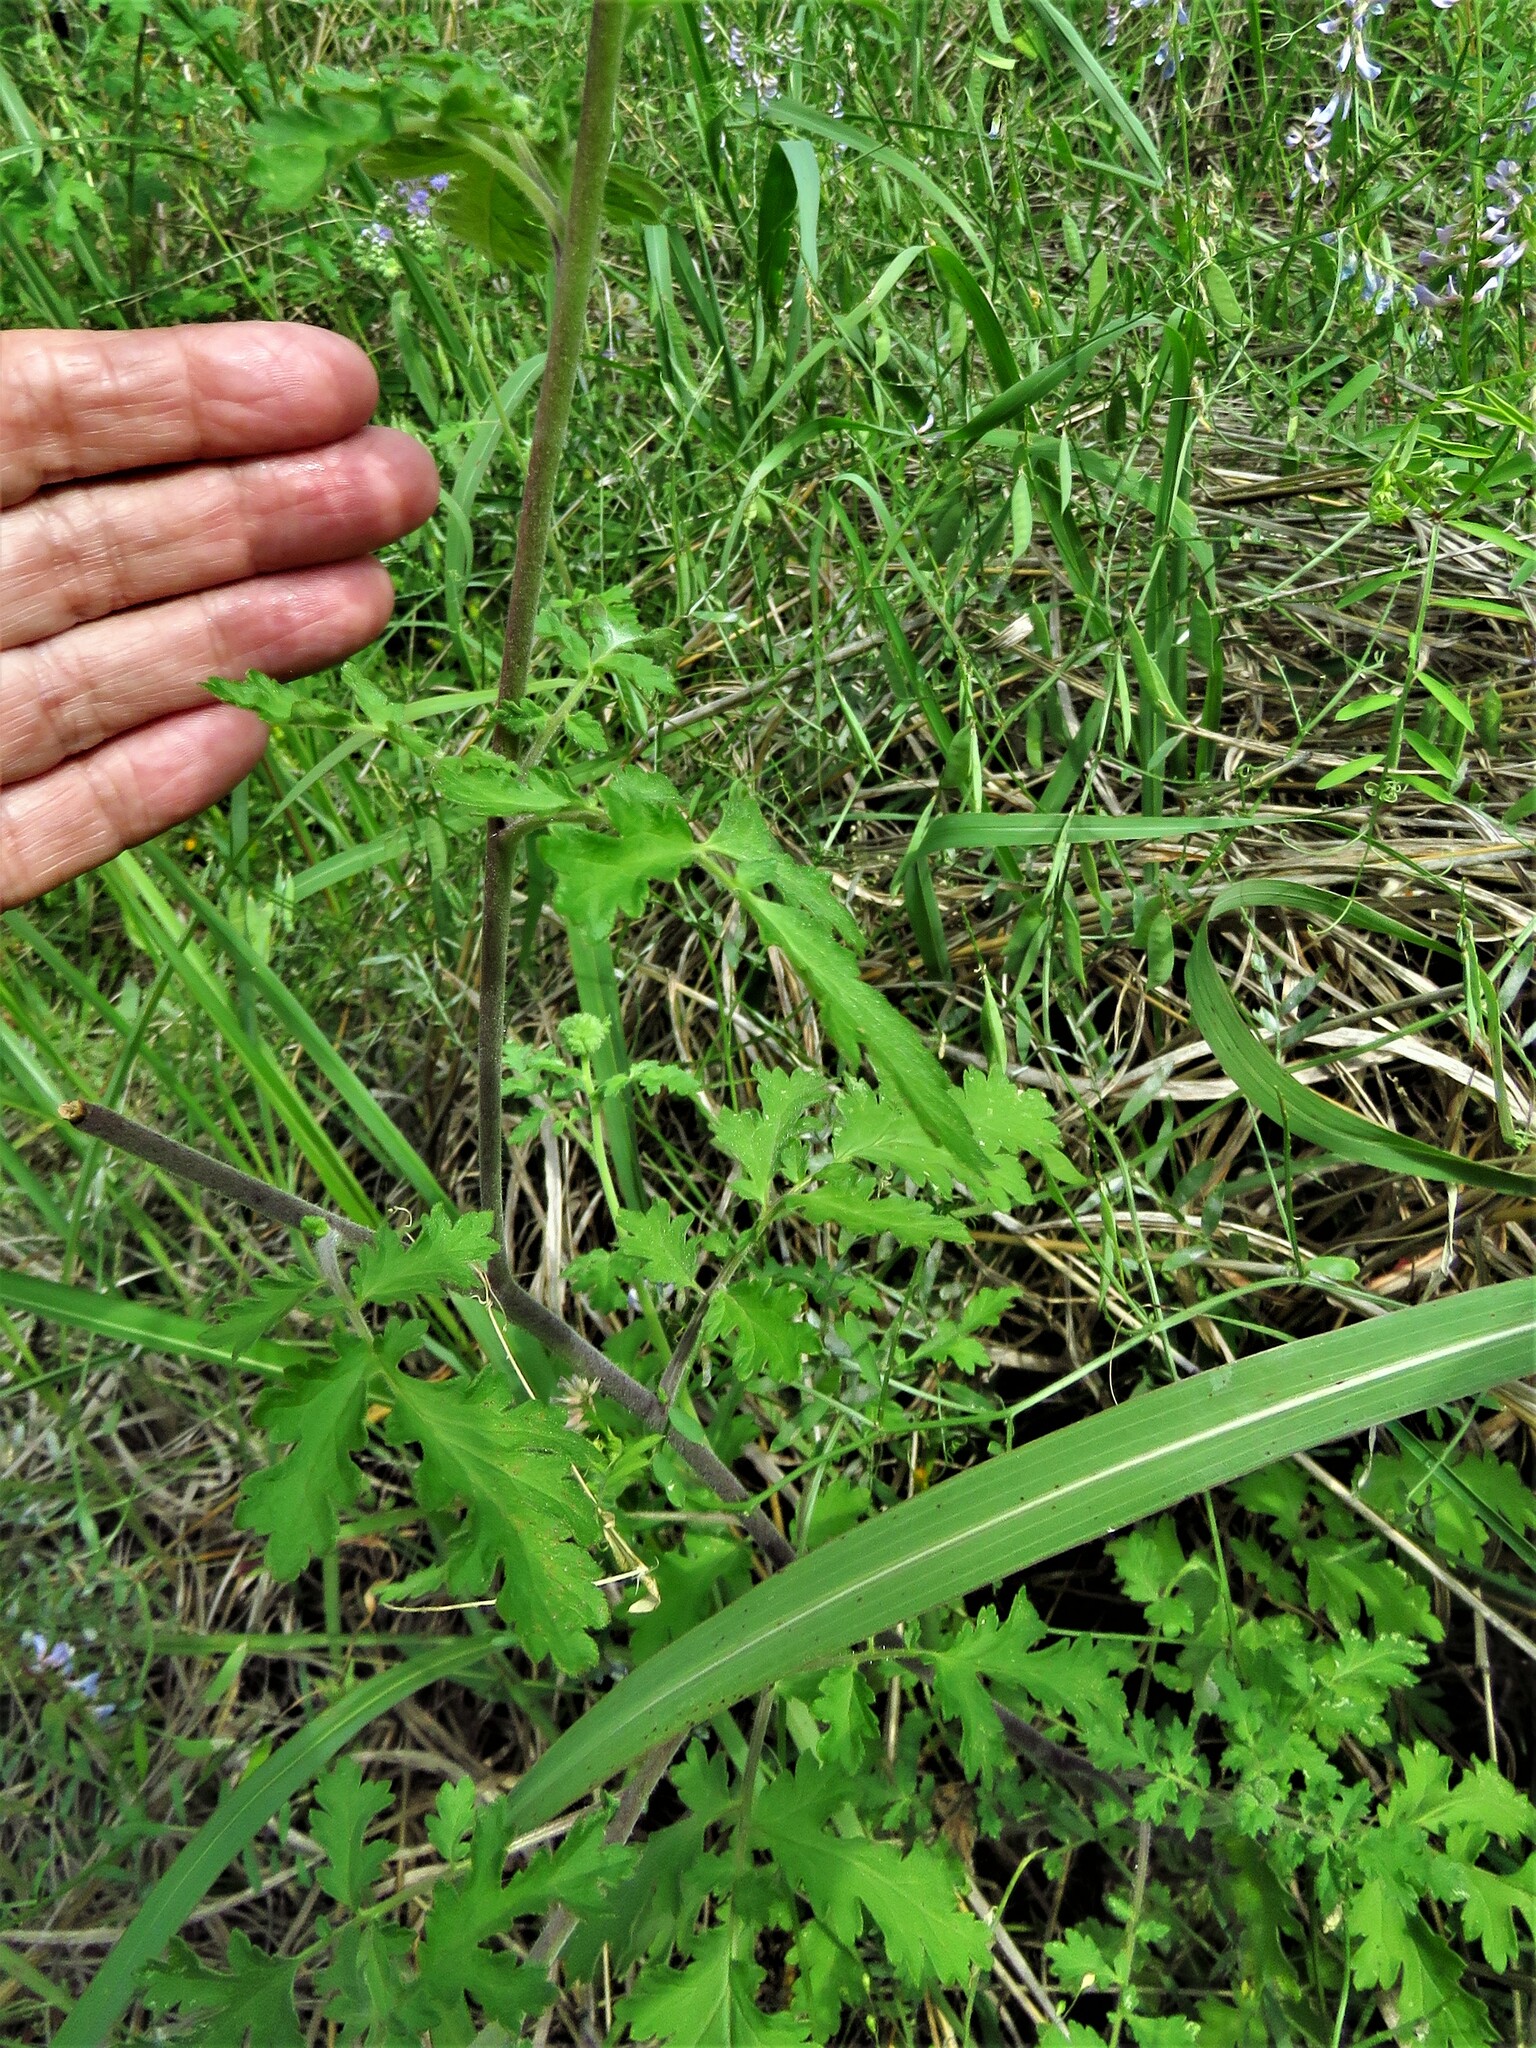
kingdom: Plantae
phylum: Tracheophyta
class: Magnoliopsida
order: Boraginales
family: Hydrophyllaceae
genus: Phacelia
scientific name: Phacelia congesta
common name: Blue curls
